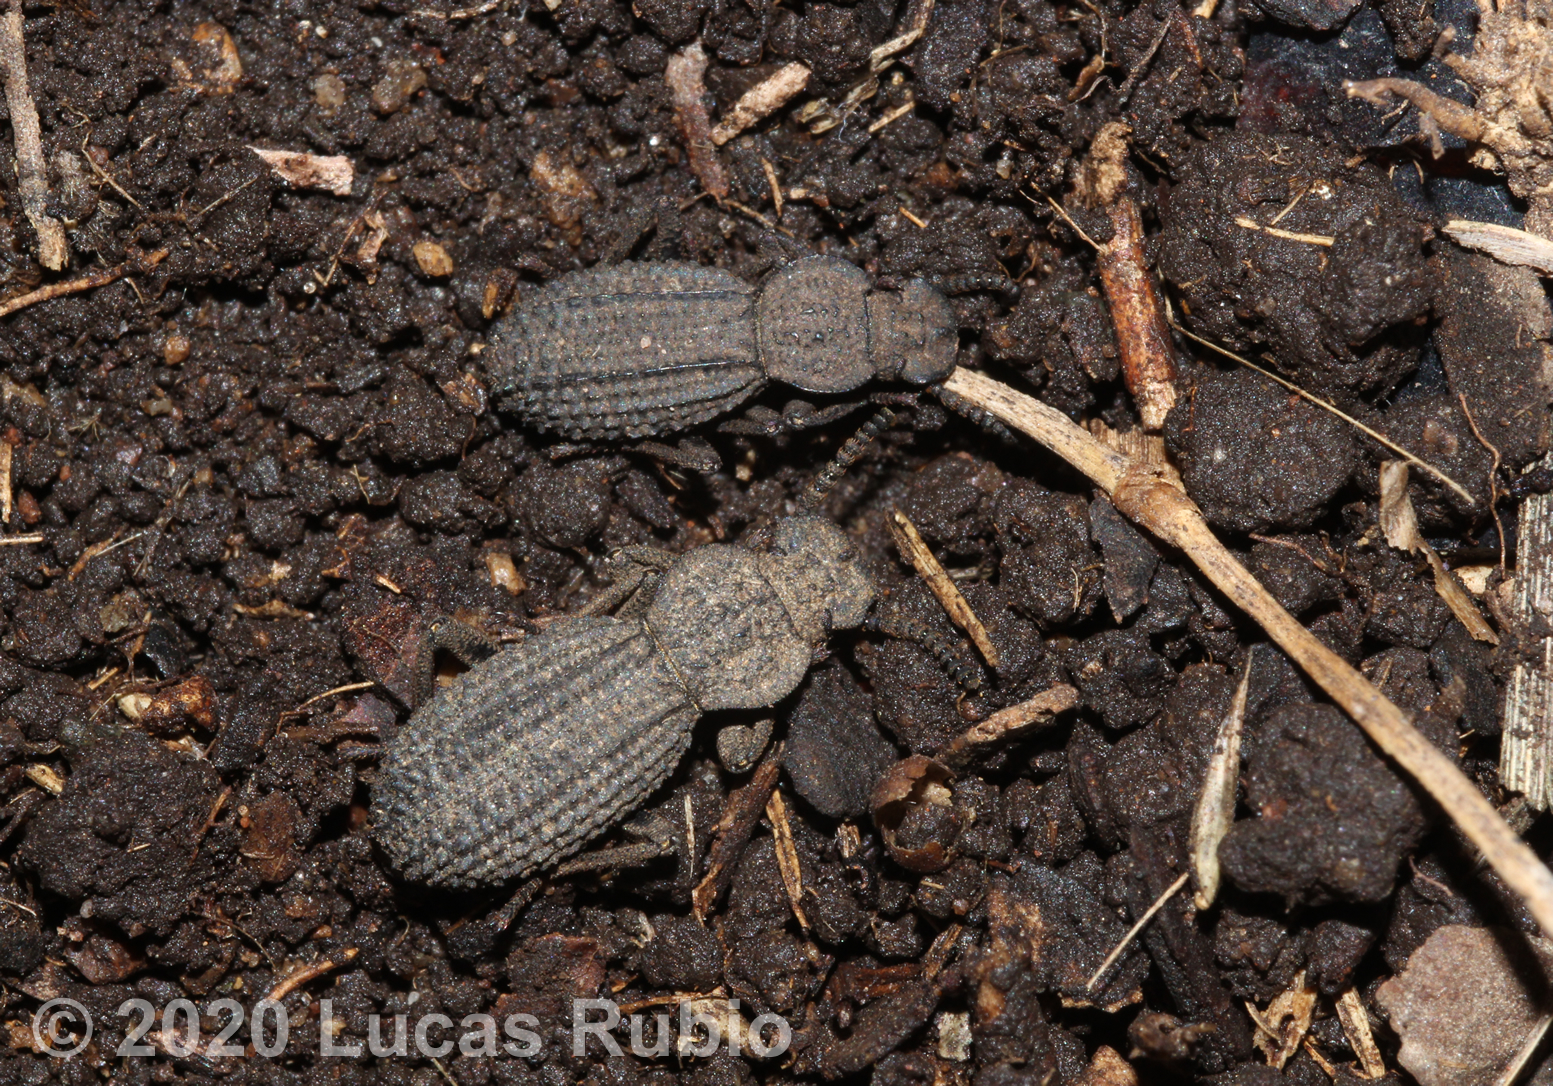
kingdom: Animalia
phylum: Arthropoda
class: Insecta
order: Coleoptera
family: Tenebrionidae
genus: Leptynoderes
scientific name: Leptynoderes
